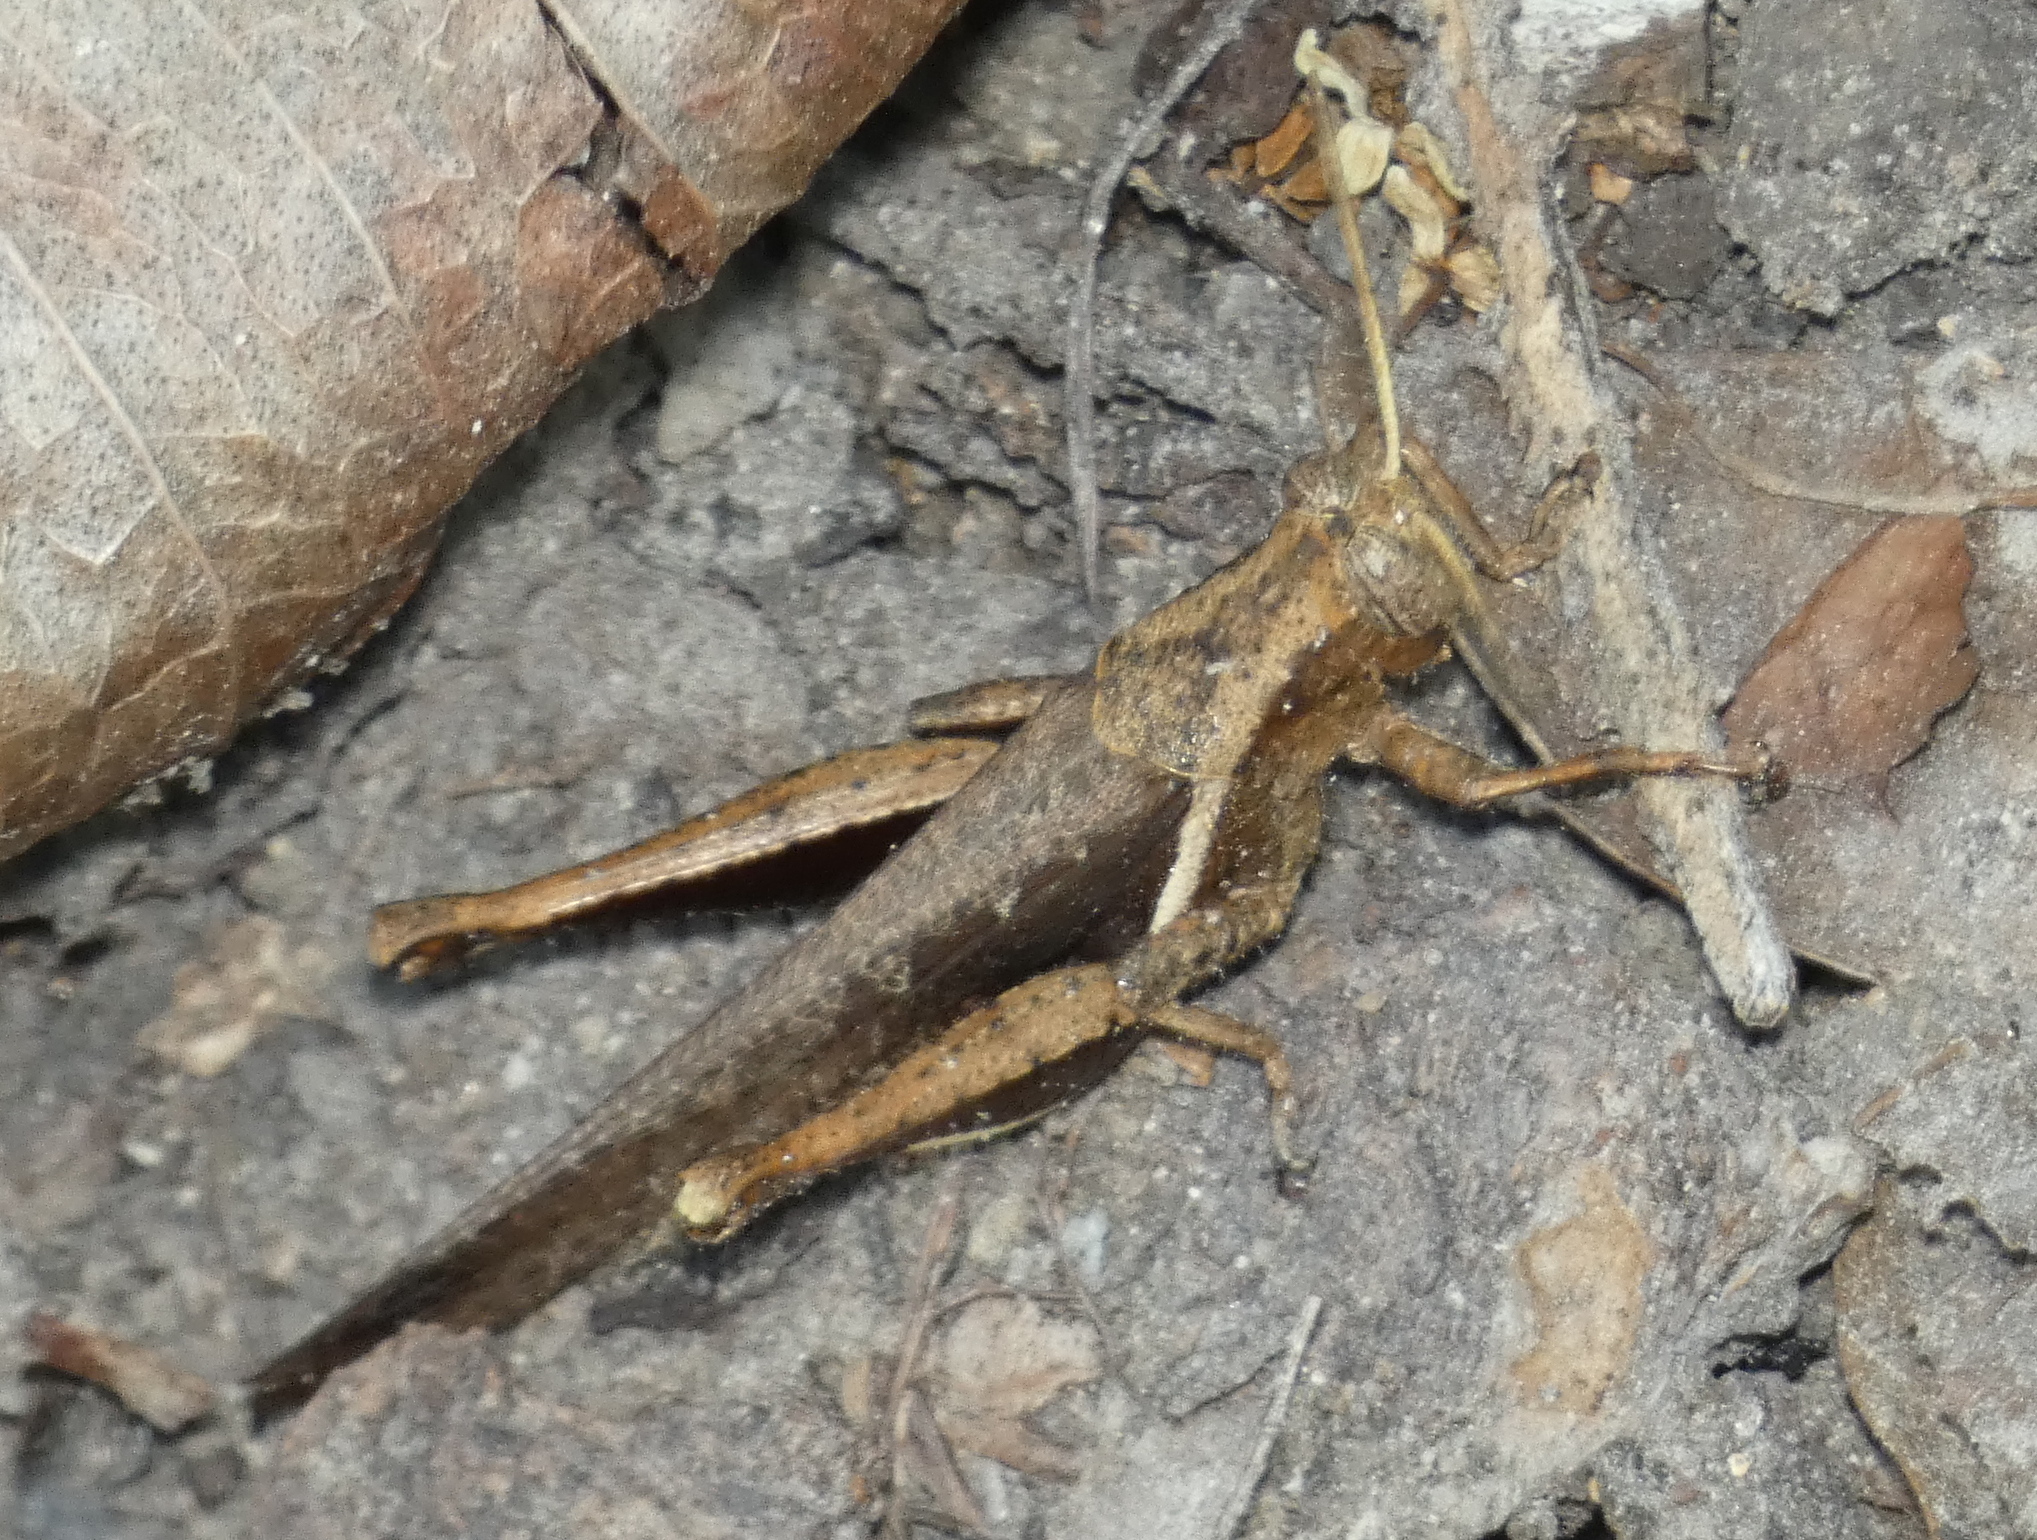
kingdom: Animalia
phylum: Arthropoda
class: Insecta
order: Orthoptera
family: Acrididae
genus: Abracris
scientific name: Abracris flavolineata
